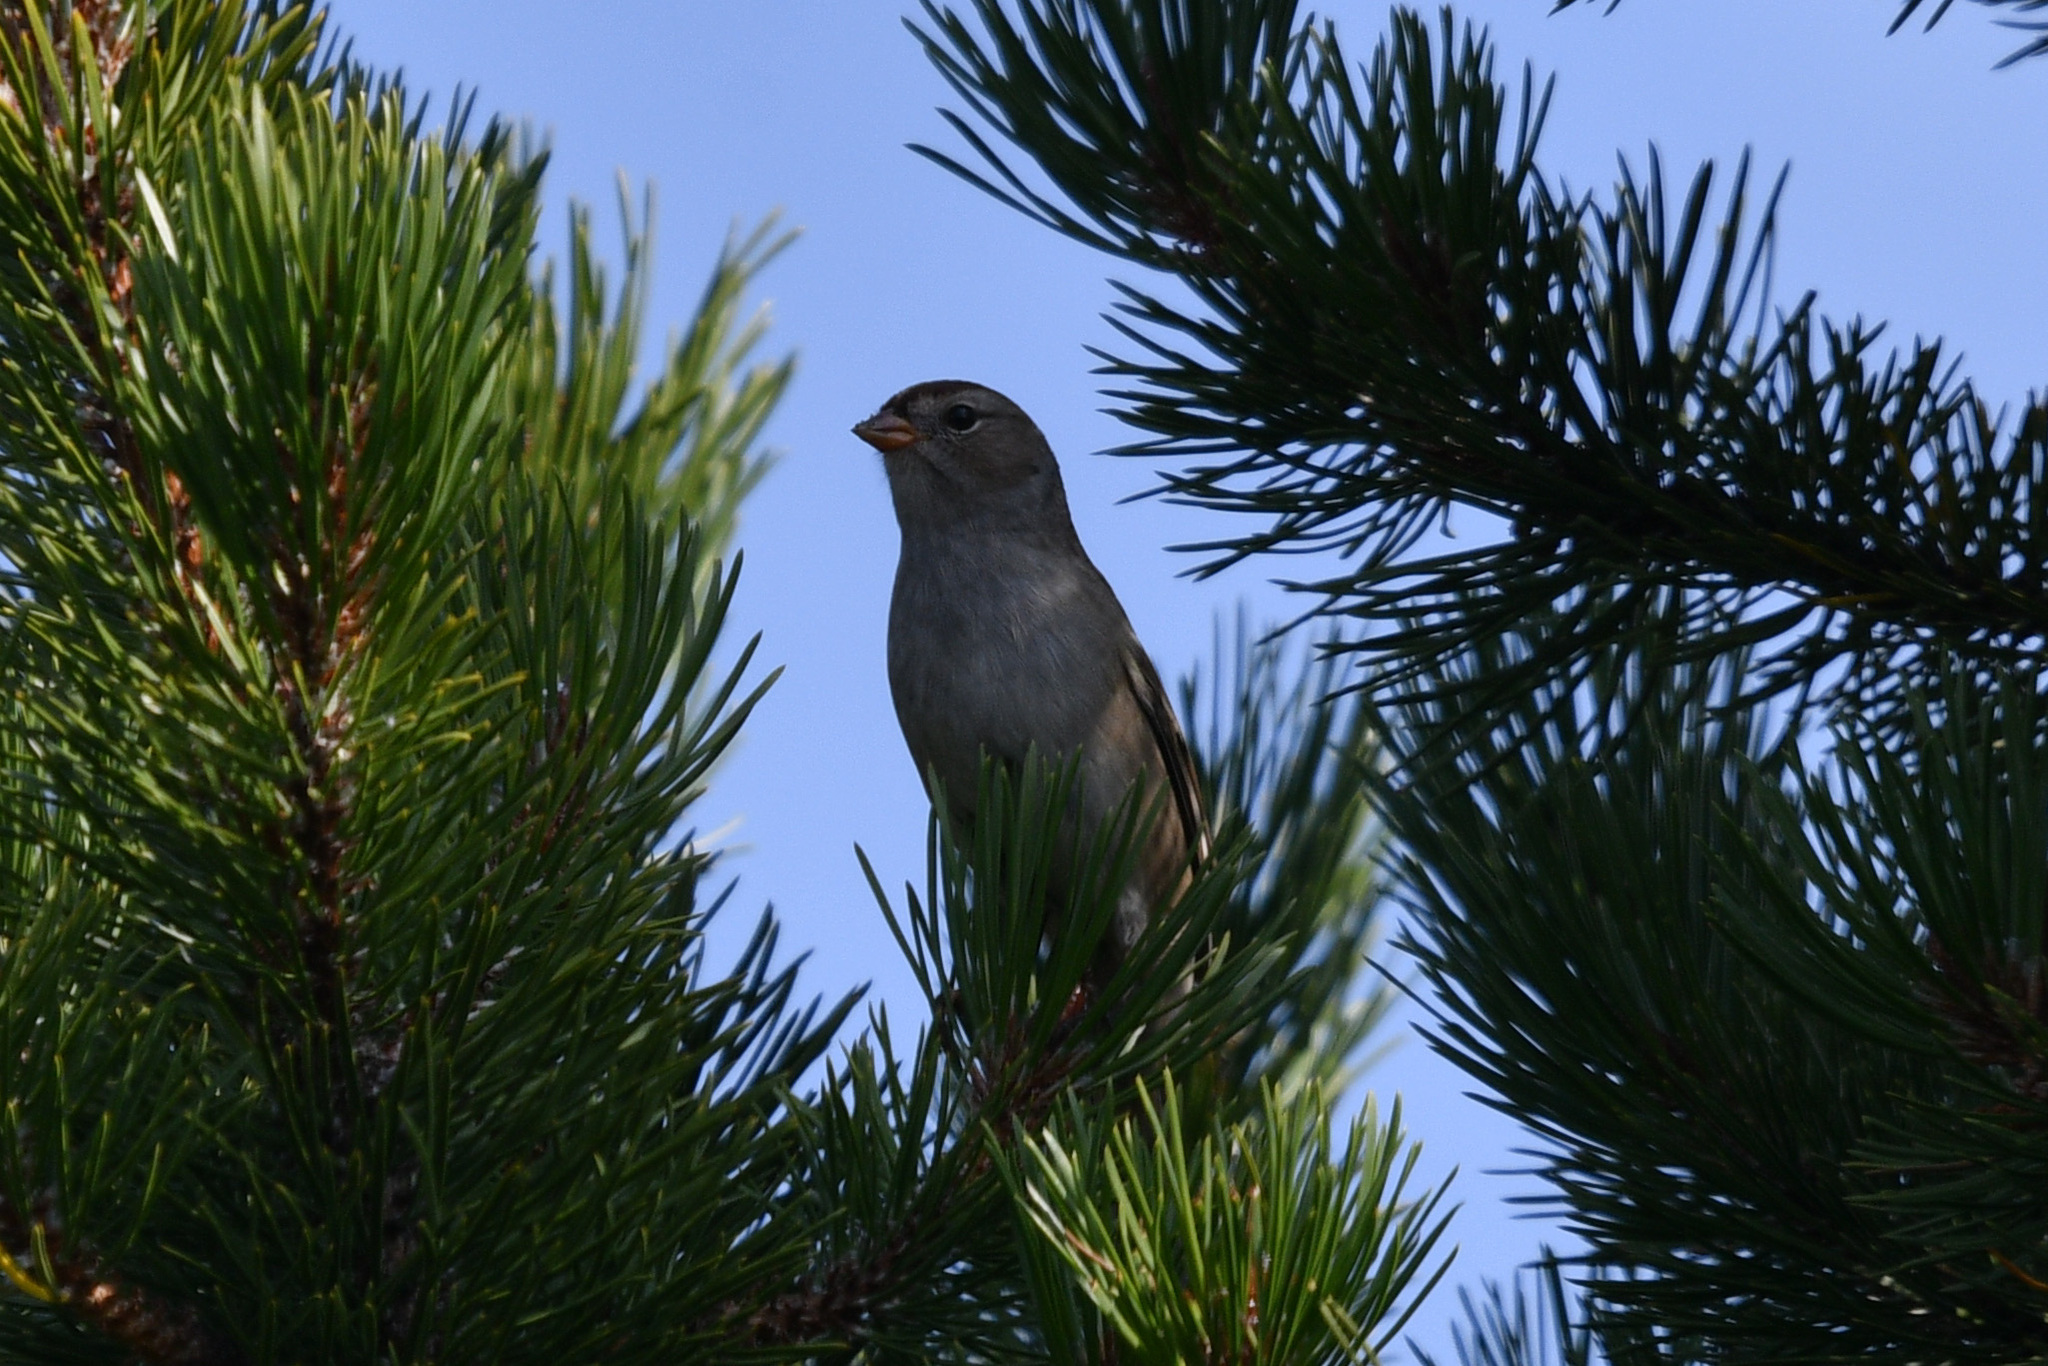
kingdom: Animalia
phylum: Chordata
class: Aves
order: Passeriformes
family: Passerellidae
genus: Zonotrichia
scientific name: Zonotrichia leucophrys
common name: White-crowned sparrow
